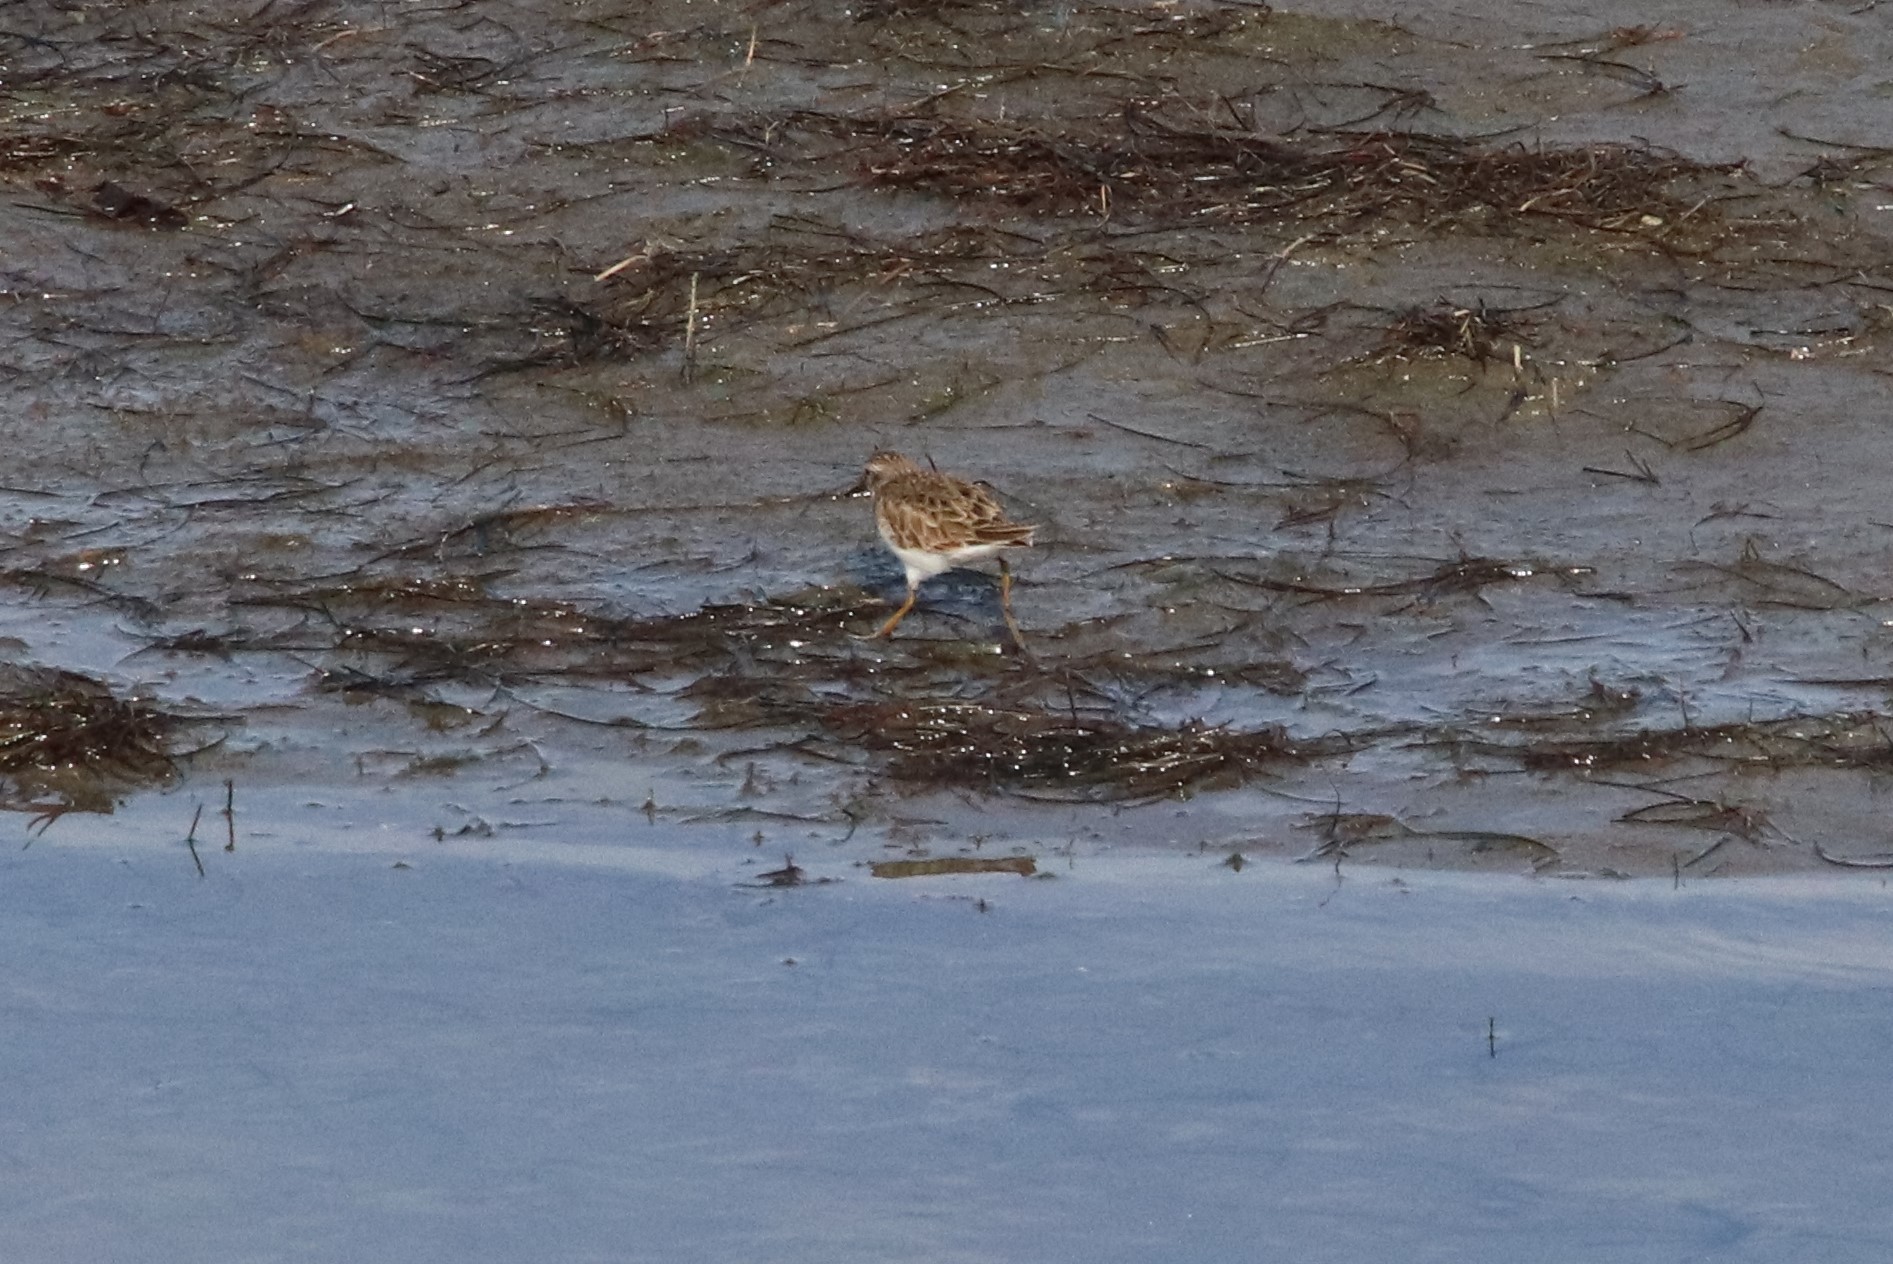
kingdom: Animalia
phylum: Chordata
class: Aves
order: Charadriiformes
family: Scolopacidae
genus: Calidris
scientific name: Calidris minutilla
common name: Least sandpiper
